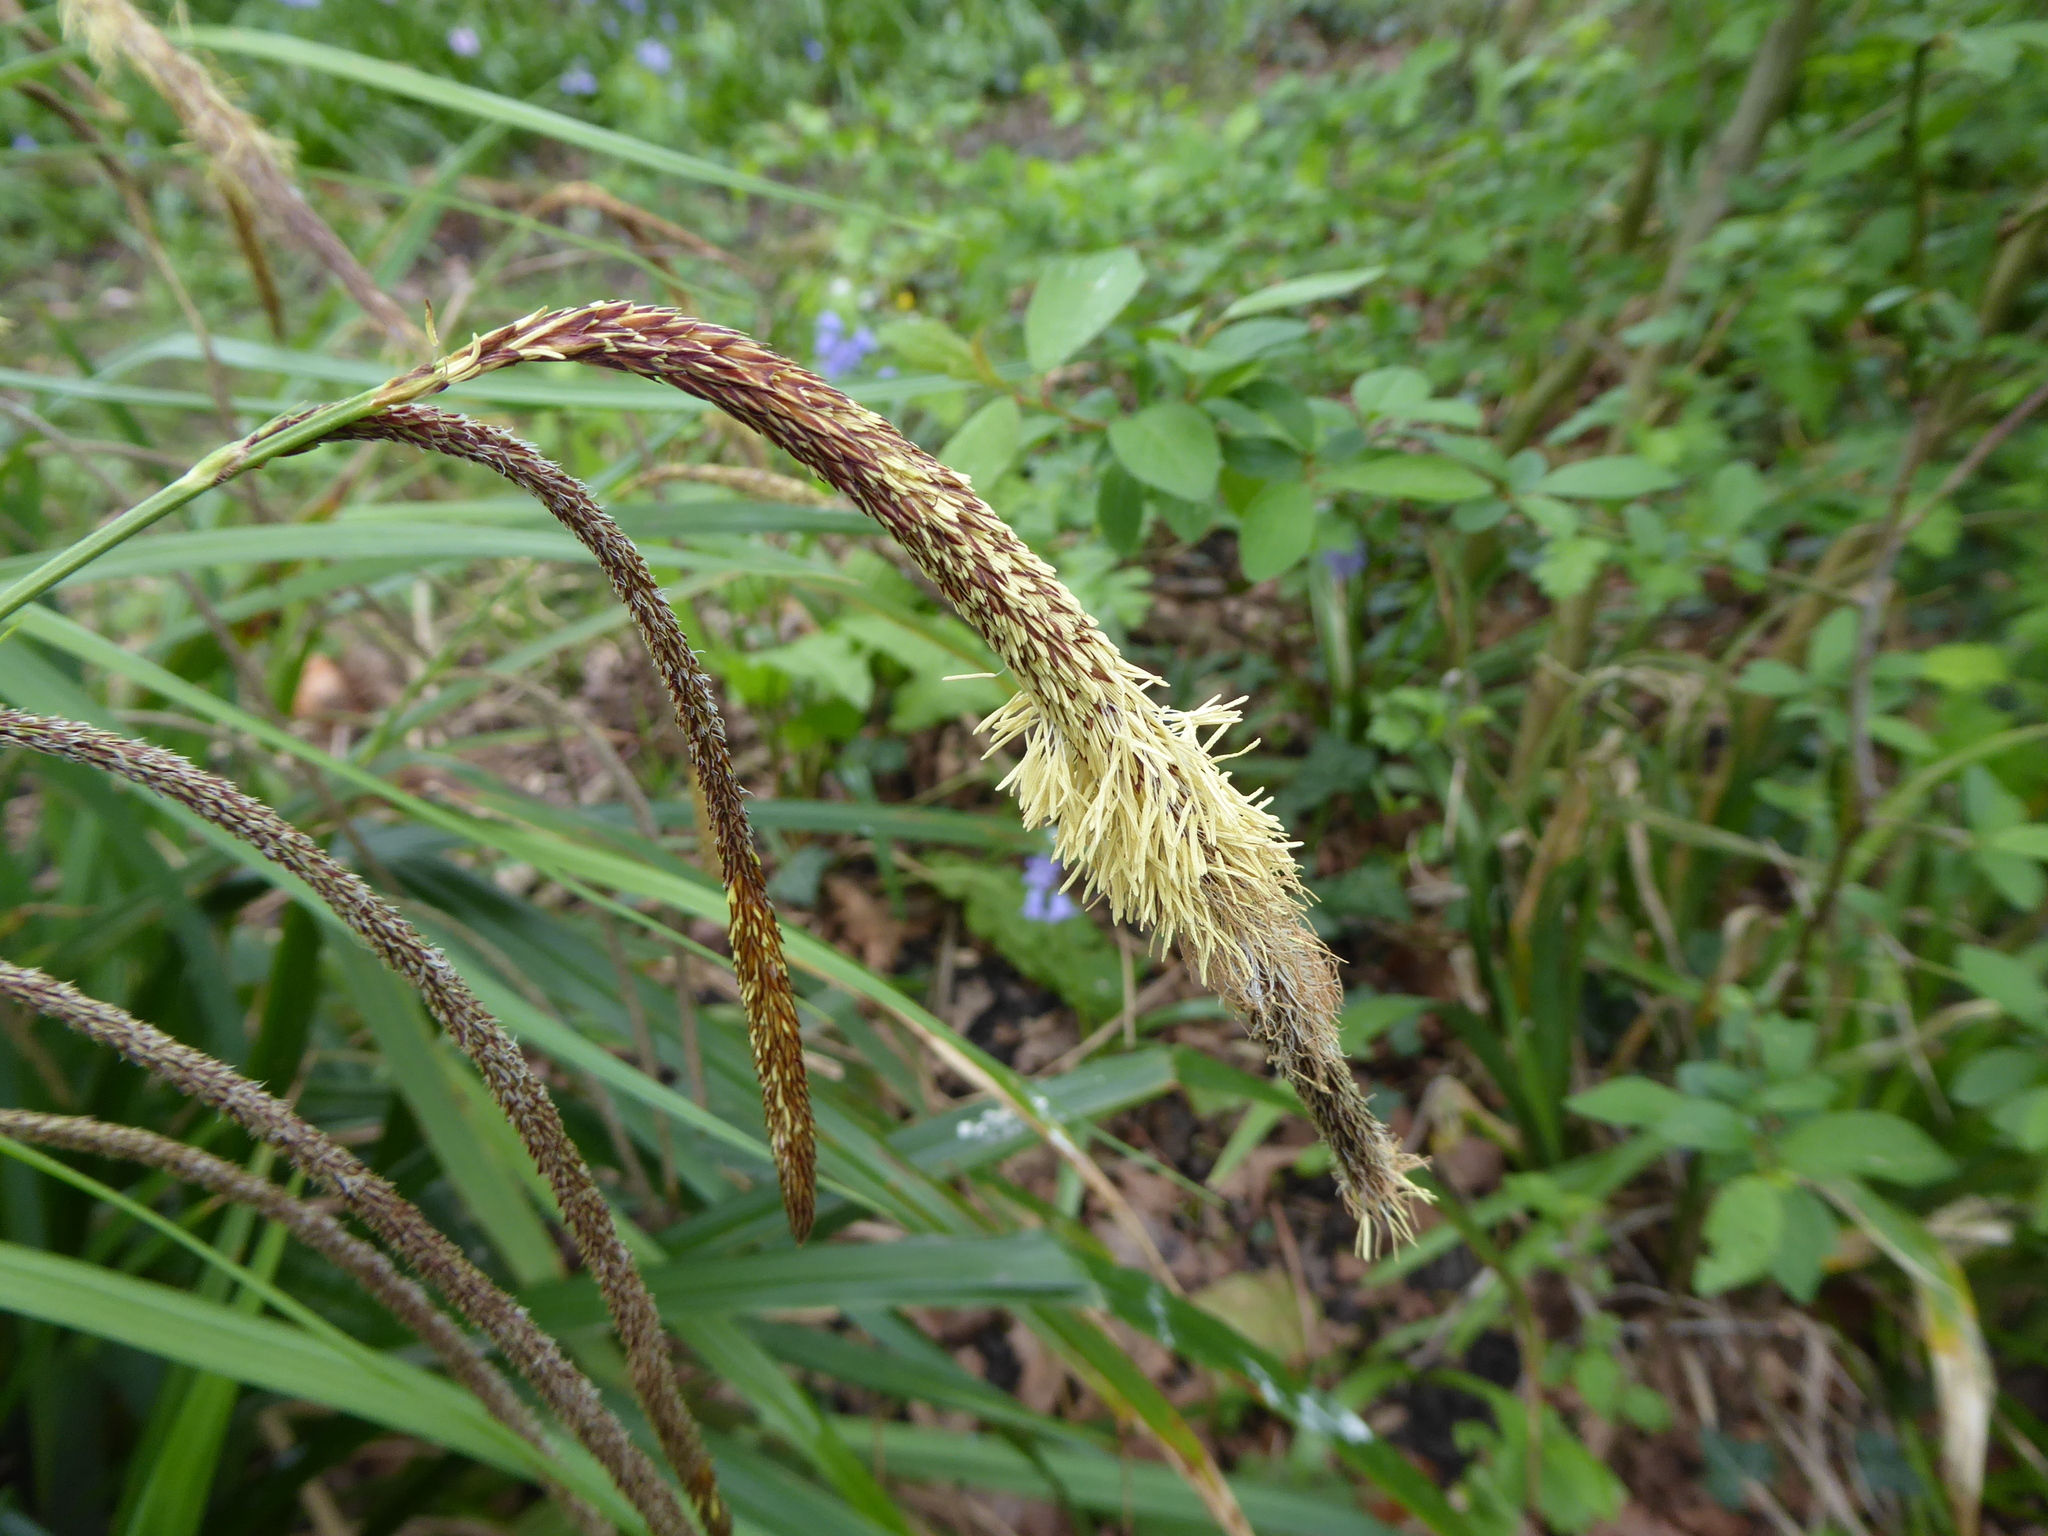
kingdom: Plantae
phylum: Tracheophyta
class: Liliopsida
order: Poales
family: Cyperaceae
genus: Carex
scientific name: Carex pendula
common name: Pendulous sedge
